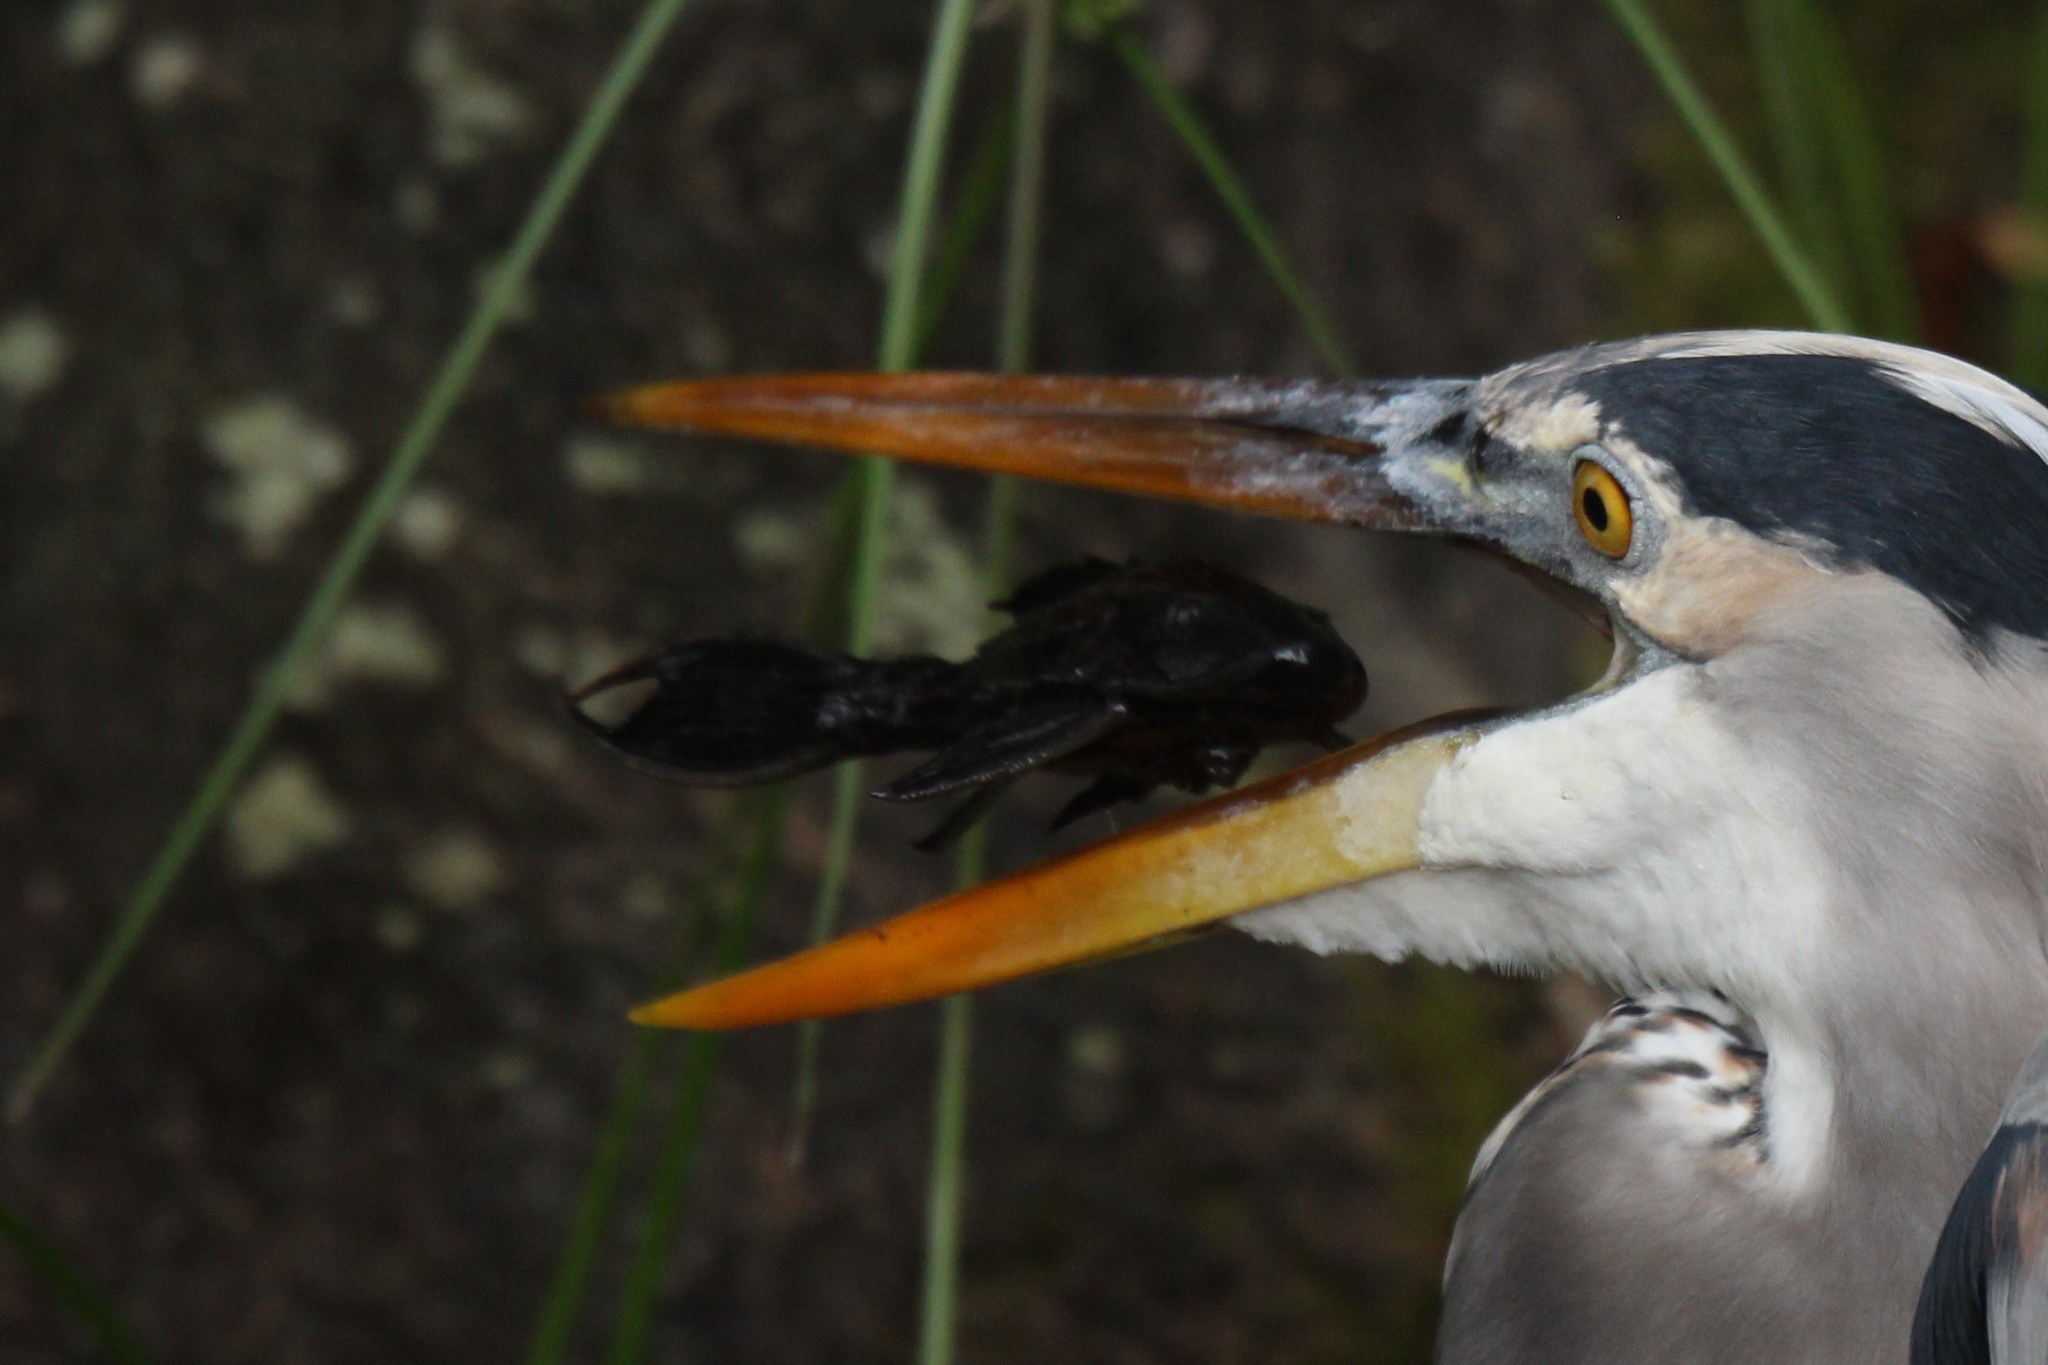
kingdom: Animalia
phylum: Chordata
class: Aves
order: Pelecaniformes
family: Ardeidae
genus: Ardea
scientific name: Ardea herodias
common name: Great blue heron
